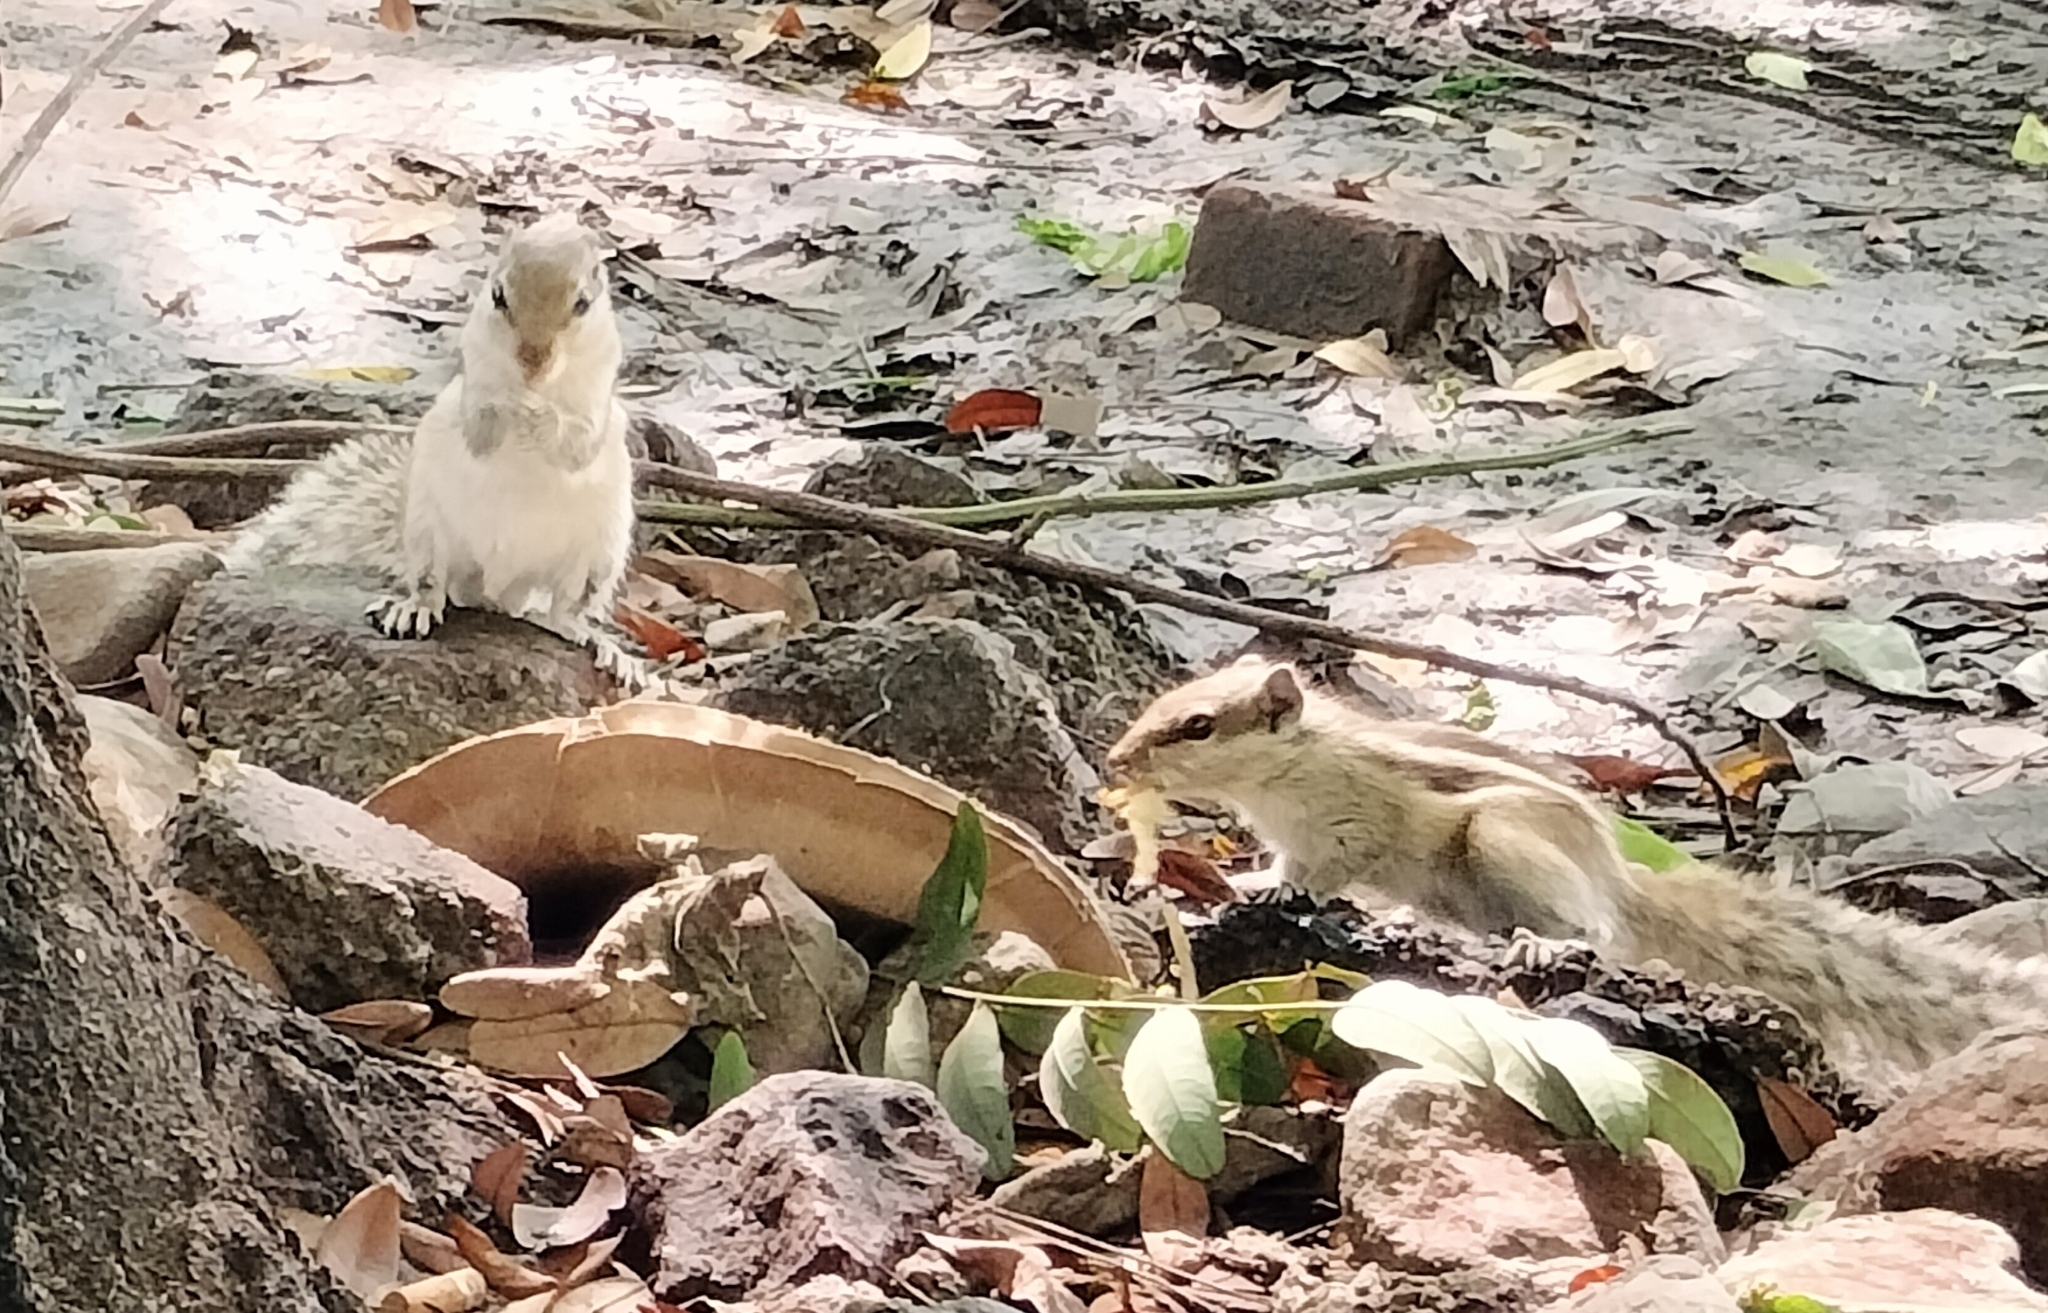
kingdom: Animalia
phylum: Chordata
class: Mammalia
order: Rodentia
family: Sciuridae
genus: Funambulus
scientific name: Funambulus pennantii
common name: Northern palm squirrel
